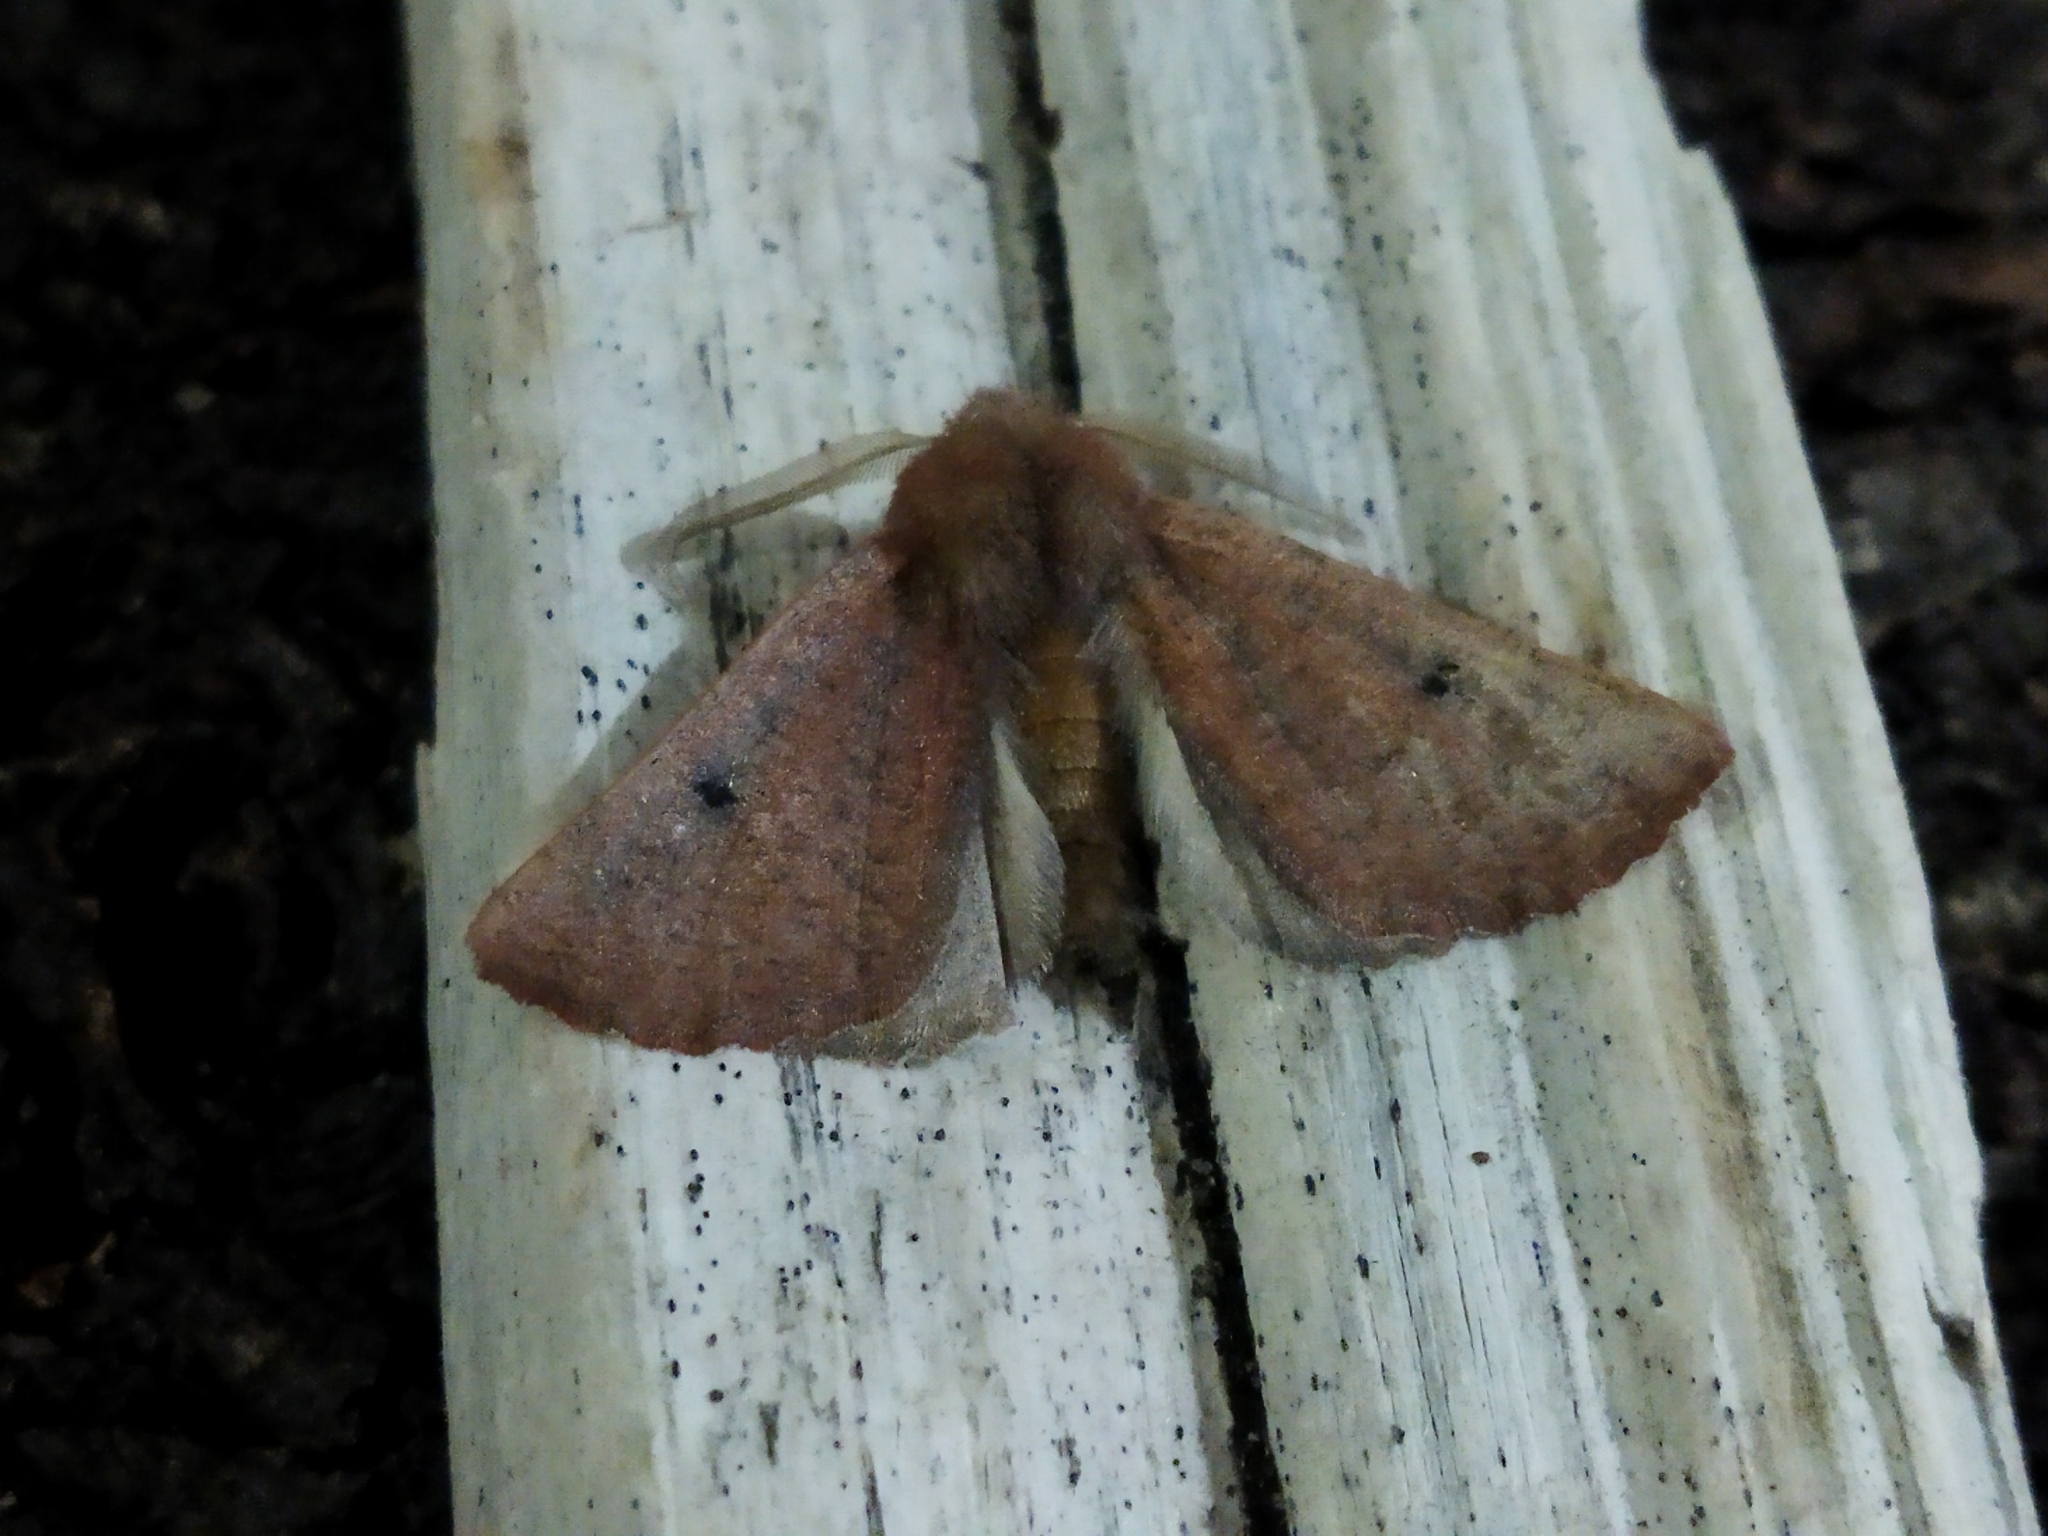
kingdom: Animalia
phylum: Arthropoda
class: Insecta
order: Lepidoptera
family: Geometridae
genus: Dasycorsa
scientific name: Dasycorsa modesta
